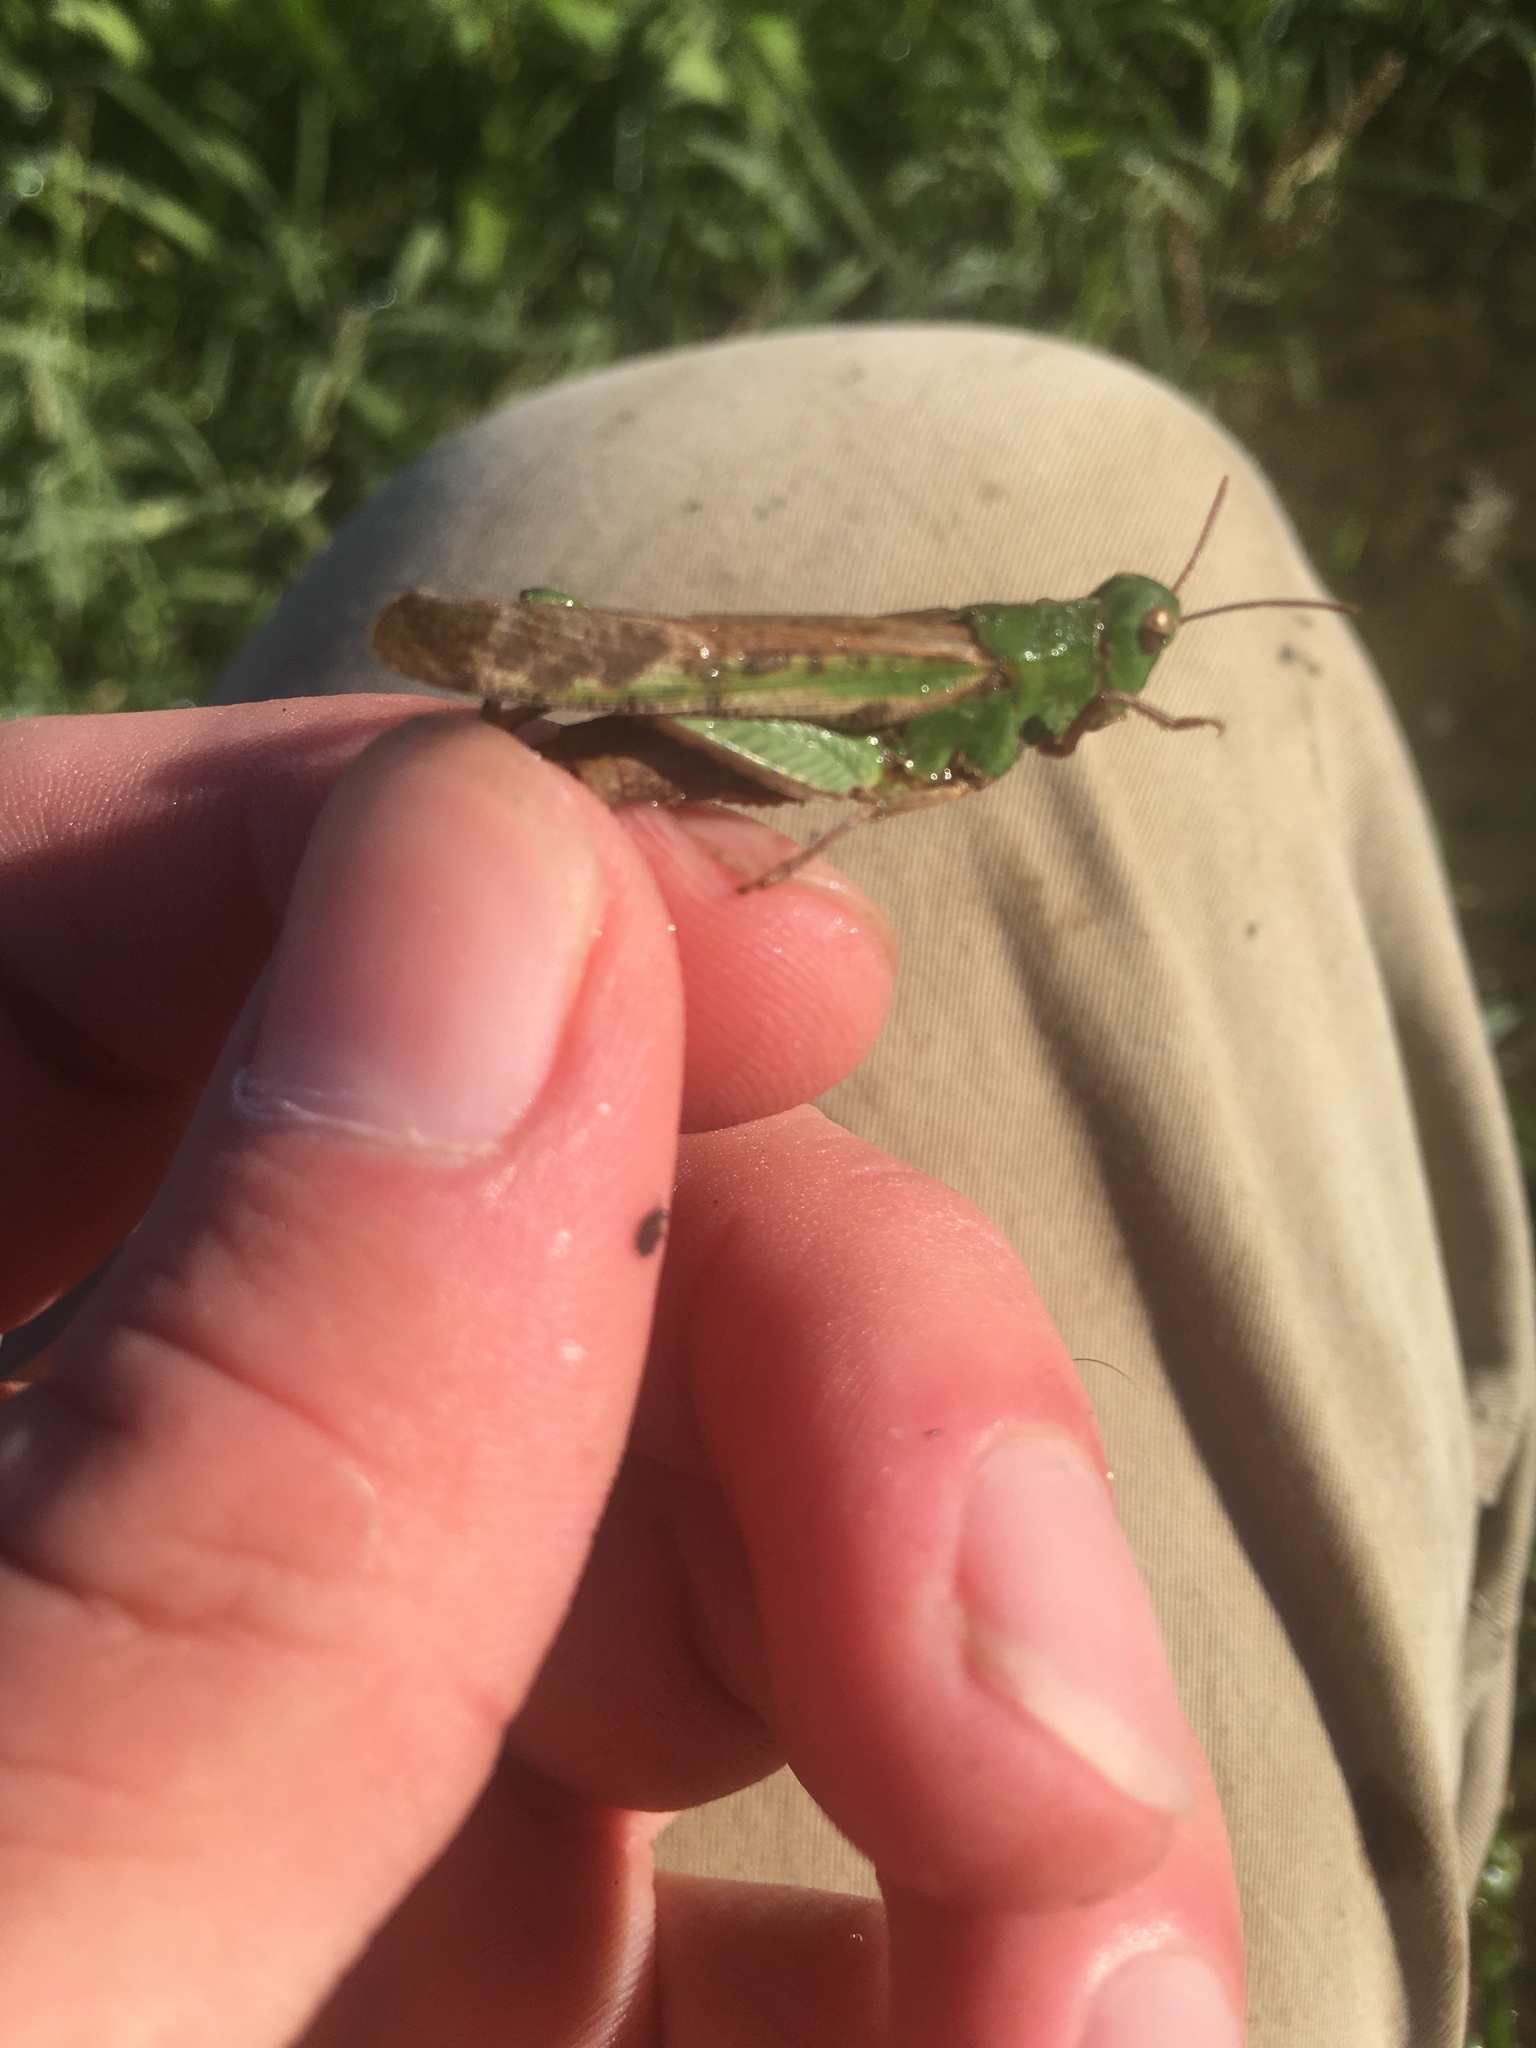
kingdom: Animalia
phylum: Arthropoda
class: Insecta
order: Orthoptera
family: Acrididae
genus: Chortophaga
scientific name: Chortophaga viridifasciata
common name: Green-striped grasshopper
